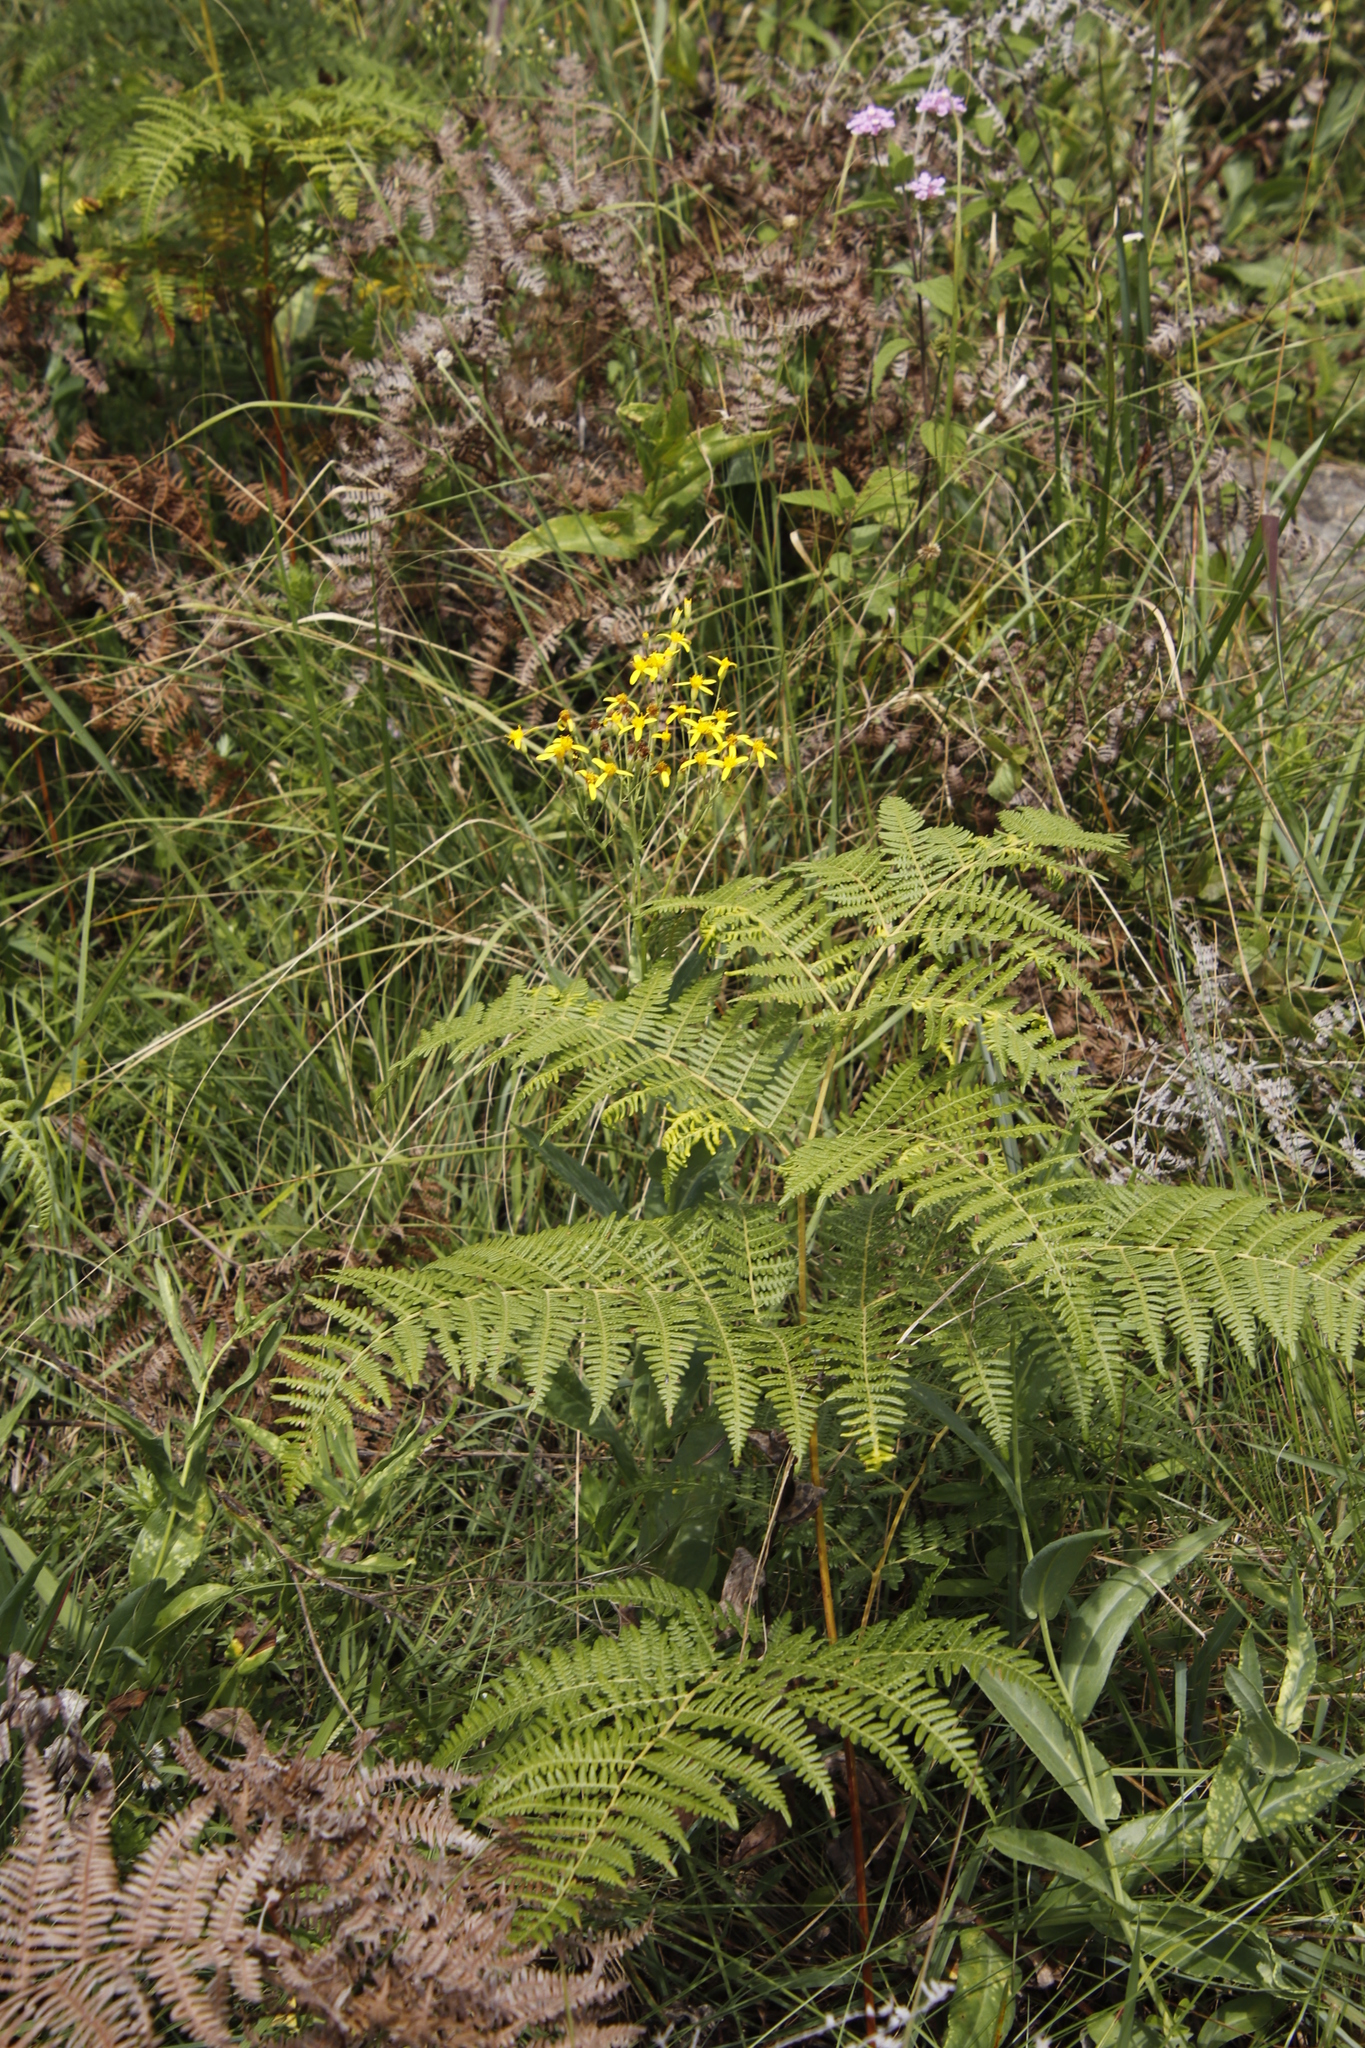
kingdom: Plantae
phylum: Tracheophyta
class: Polypodiopsida
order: Polypodiales
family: Dennstaedtiaceae
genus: Pteridium
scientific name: Pteridium aquilinum
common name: Bracken
